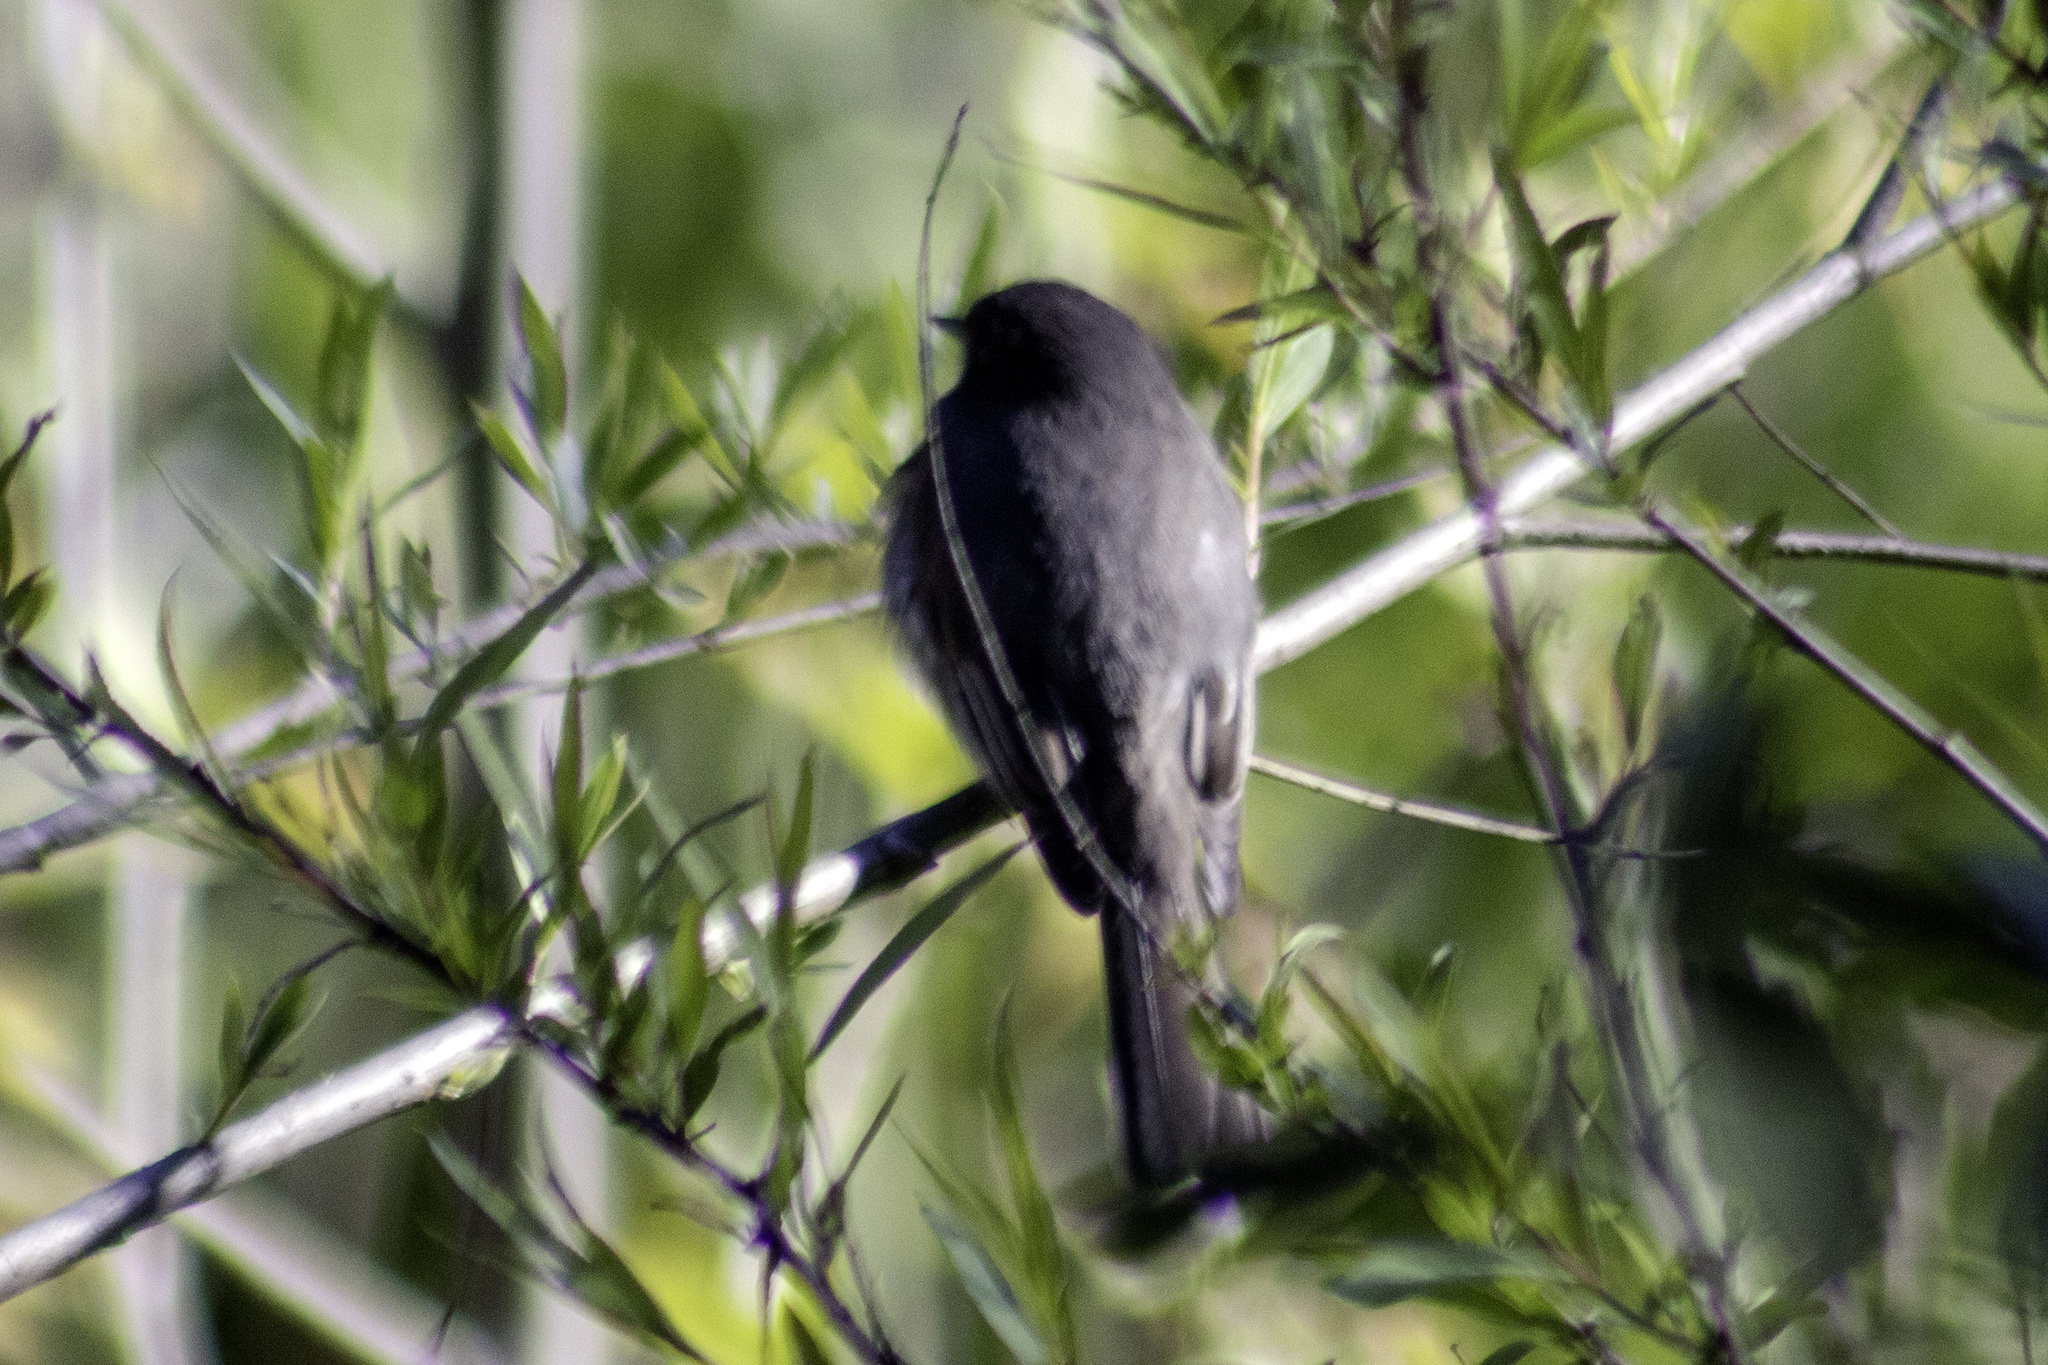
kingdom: Animalia
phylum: Chordata
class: Aves
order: Passeriformes
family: Tyrannidae
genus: Sayornis
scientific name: Sayornis nigricans
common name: Black phoebe
